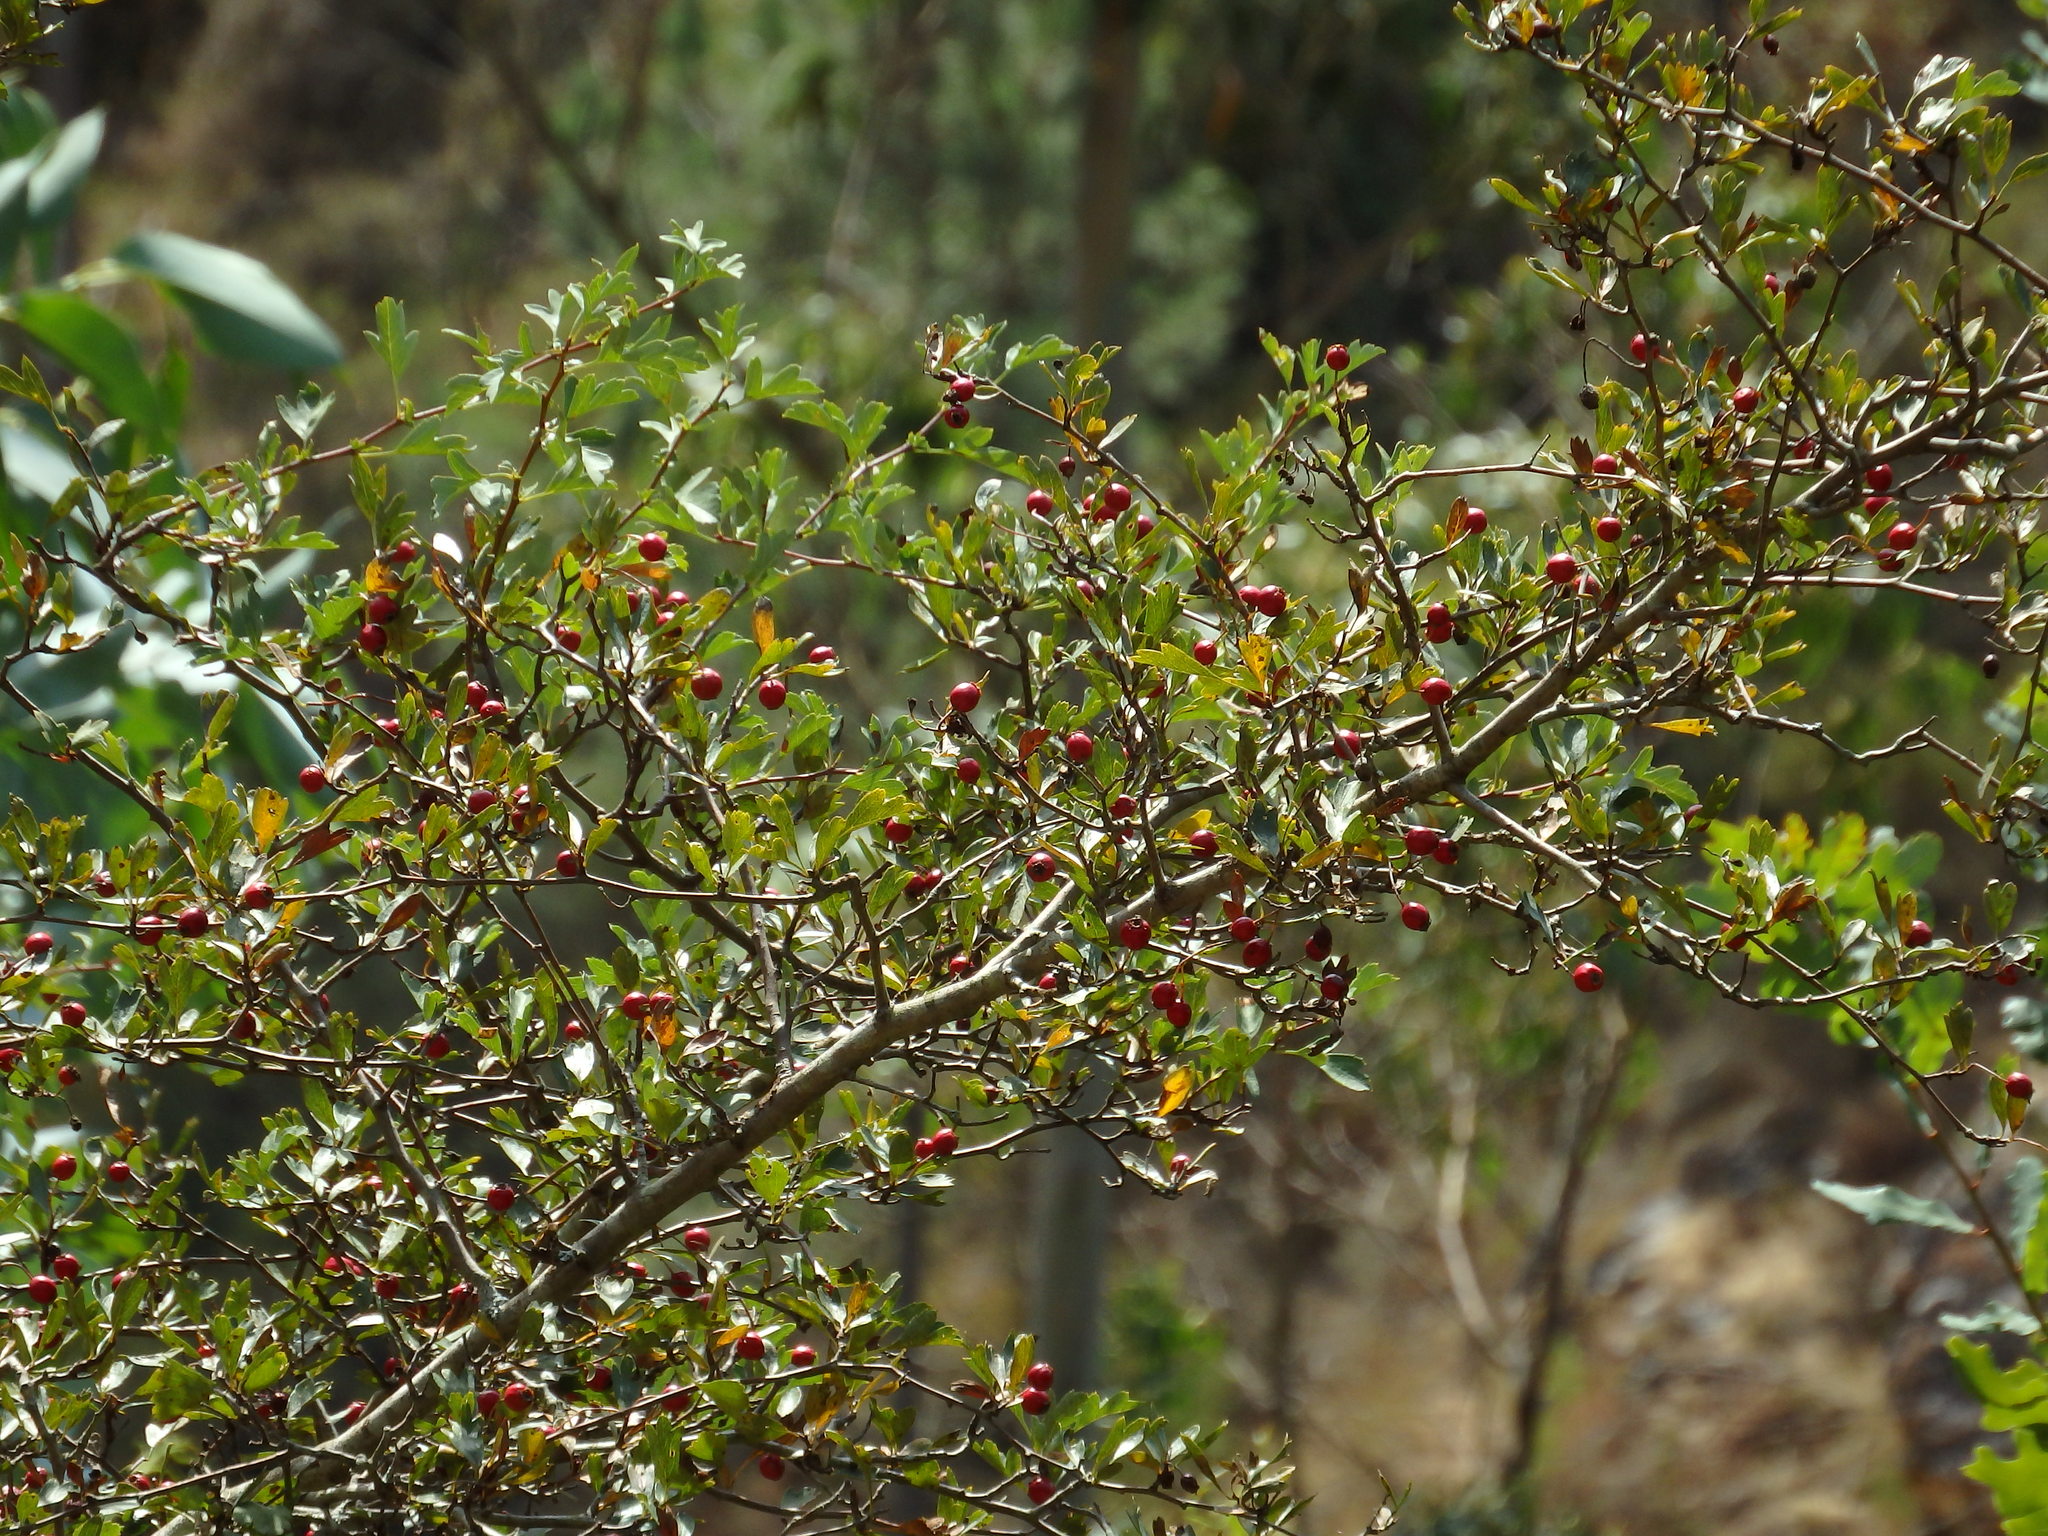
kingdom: Plantae
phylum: Tracheophyta
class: Magnoliopsida
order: Rosales
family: Rosaceae
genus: Crataegus
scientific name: Crataegus monogyna
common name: Hawthorn
